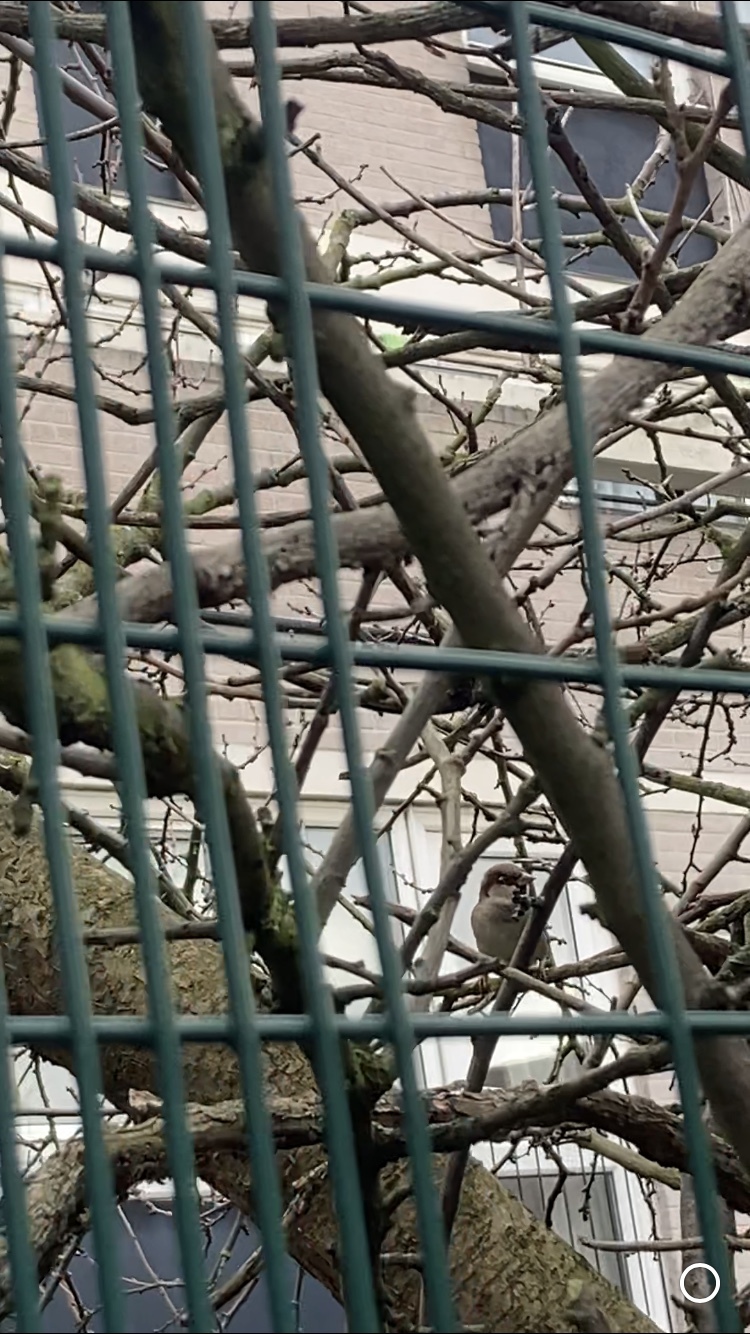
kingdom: Animalia
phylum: Chordata
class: Aves
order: Passeriformes
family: Passeridae
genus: Passer
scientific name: Passer domesticus
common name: House sparrow
